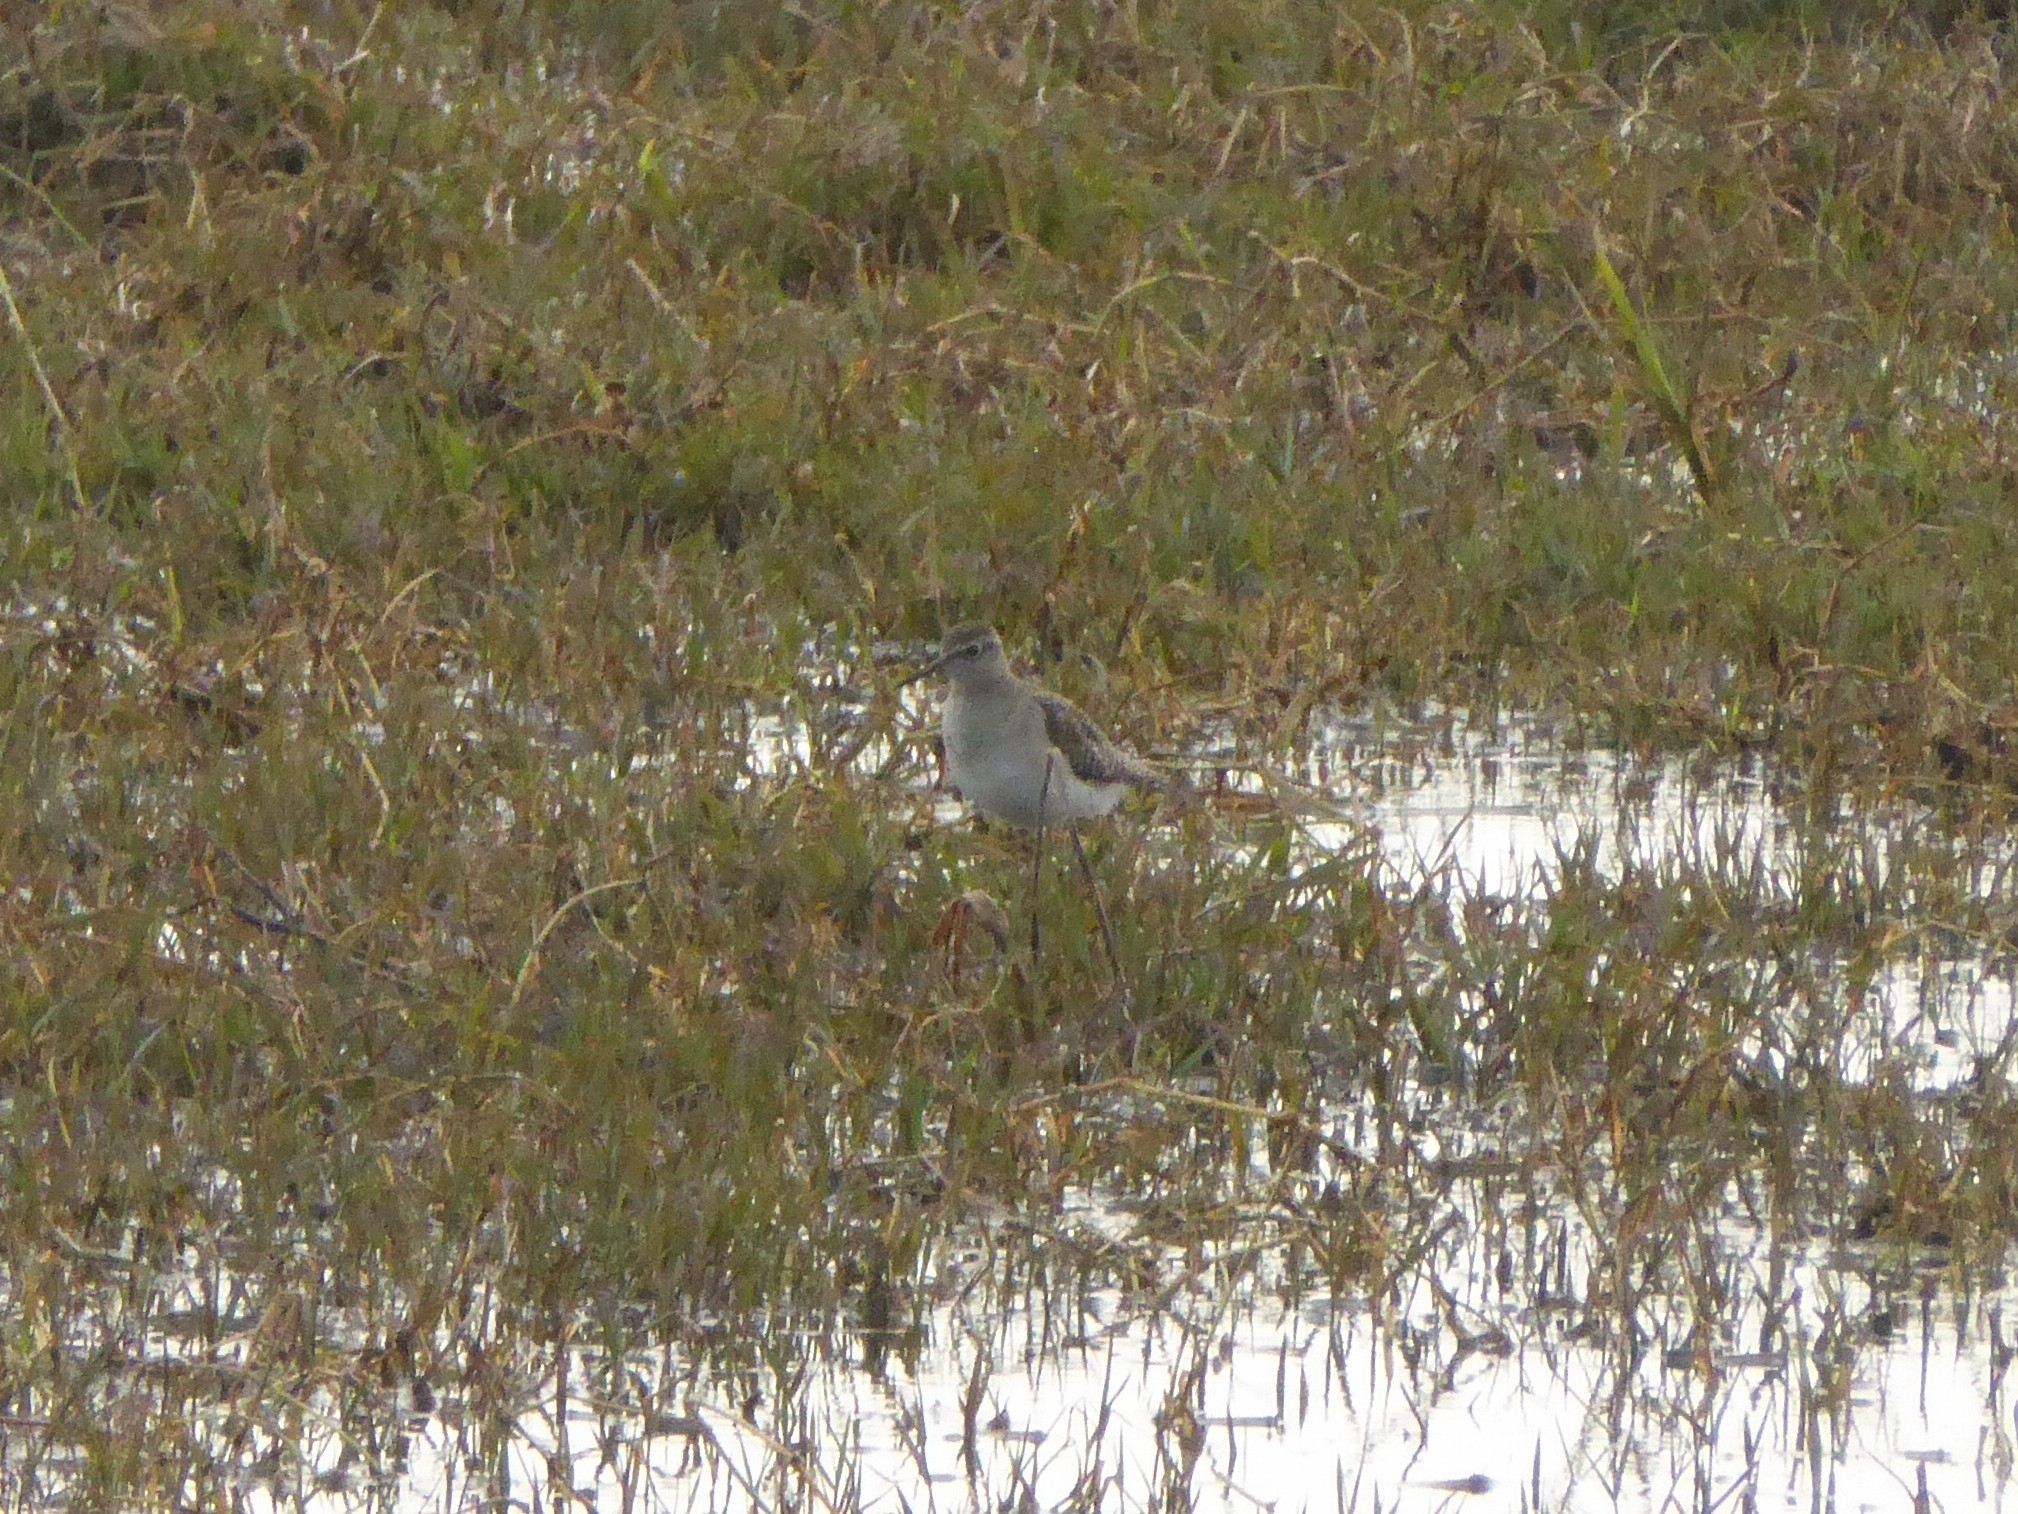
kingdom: Animalia
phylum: Chordata
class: Aves
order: Charadriiformes
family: Scolopacidae
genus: Tringa
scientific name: Tringa glareola
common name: Wood sandpiper
